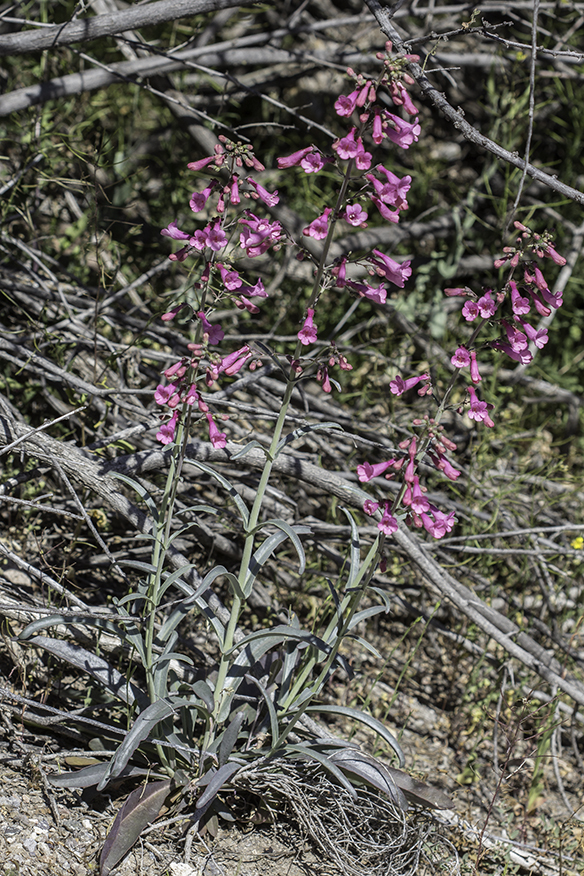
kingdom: Plantae
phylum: Tracheophyta
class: Magnoliopsida
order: Lamiales
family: Plantaginaceae
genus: Penstemon
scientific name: Penstemon parryi
